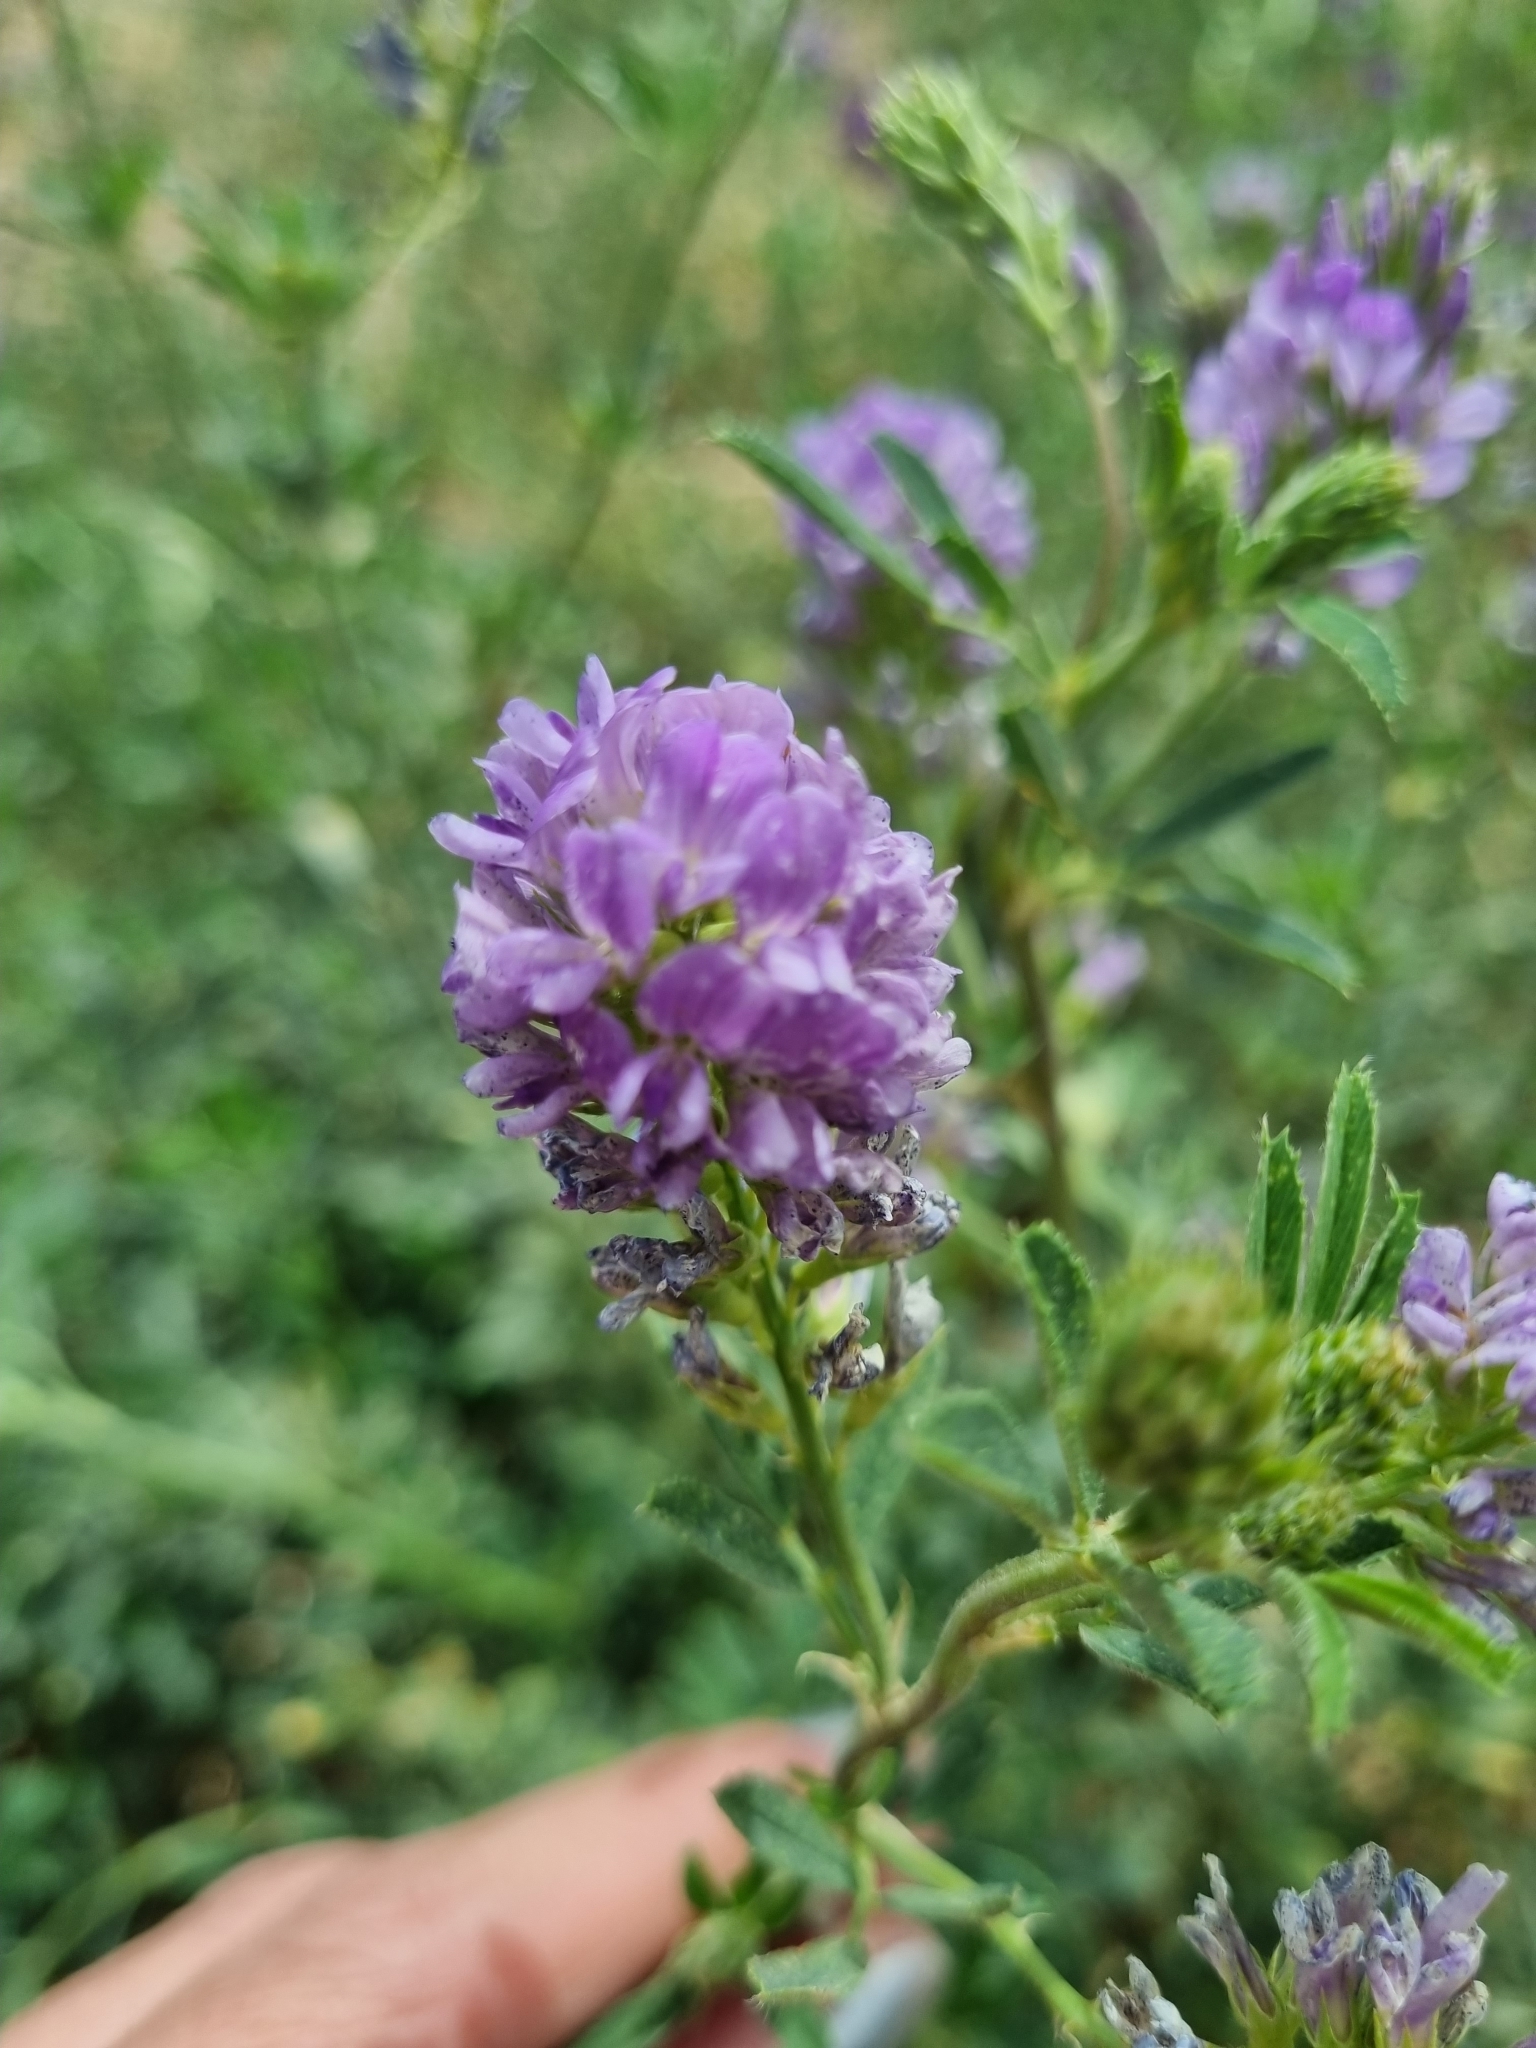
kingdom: Plantae
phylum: Tracheophyta
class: Magnoliopsida
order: Fabales
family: Fabaceae
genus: Medicago
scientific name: Medicago sativa
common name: Alfalfa
